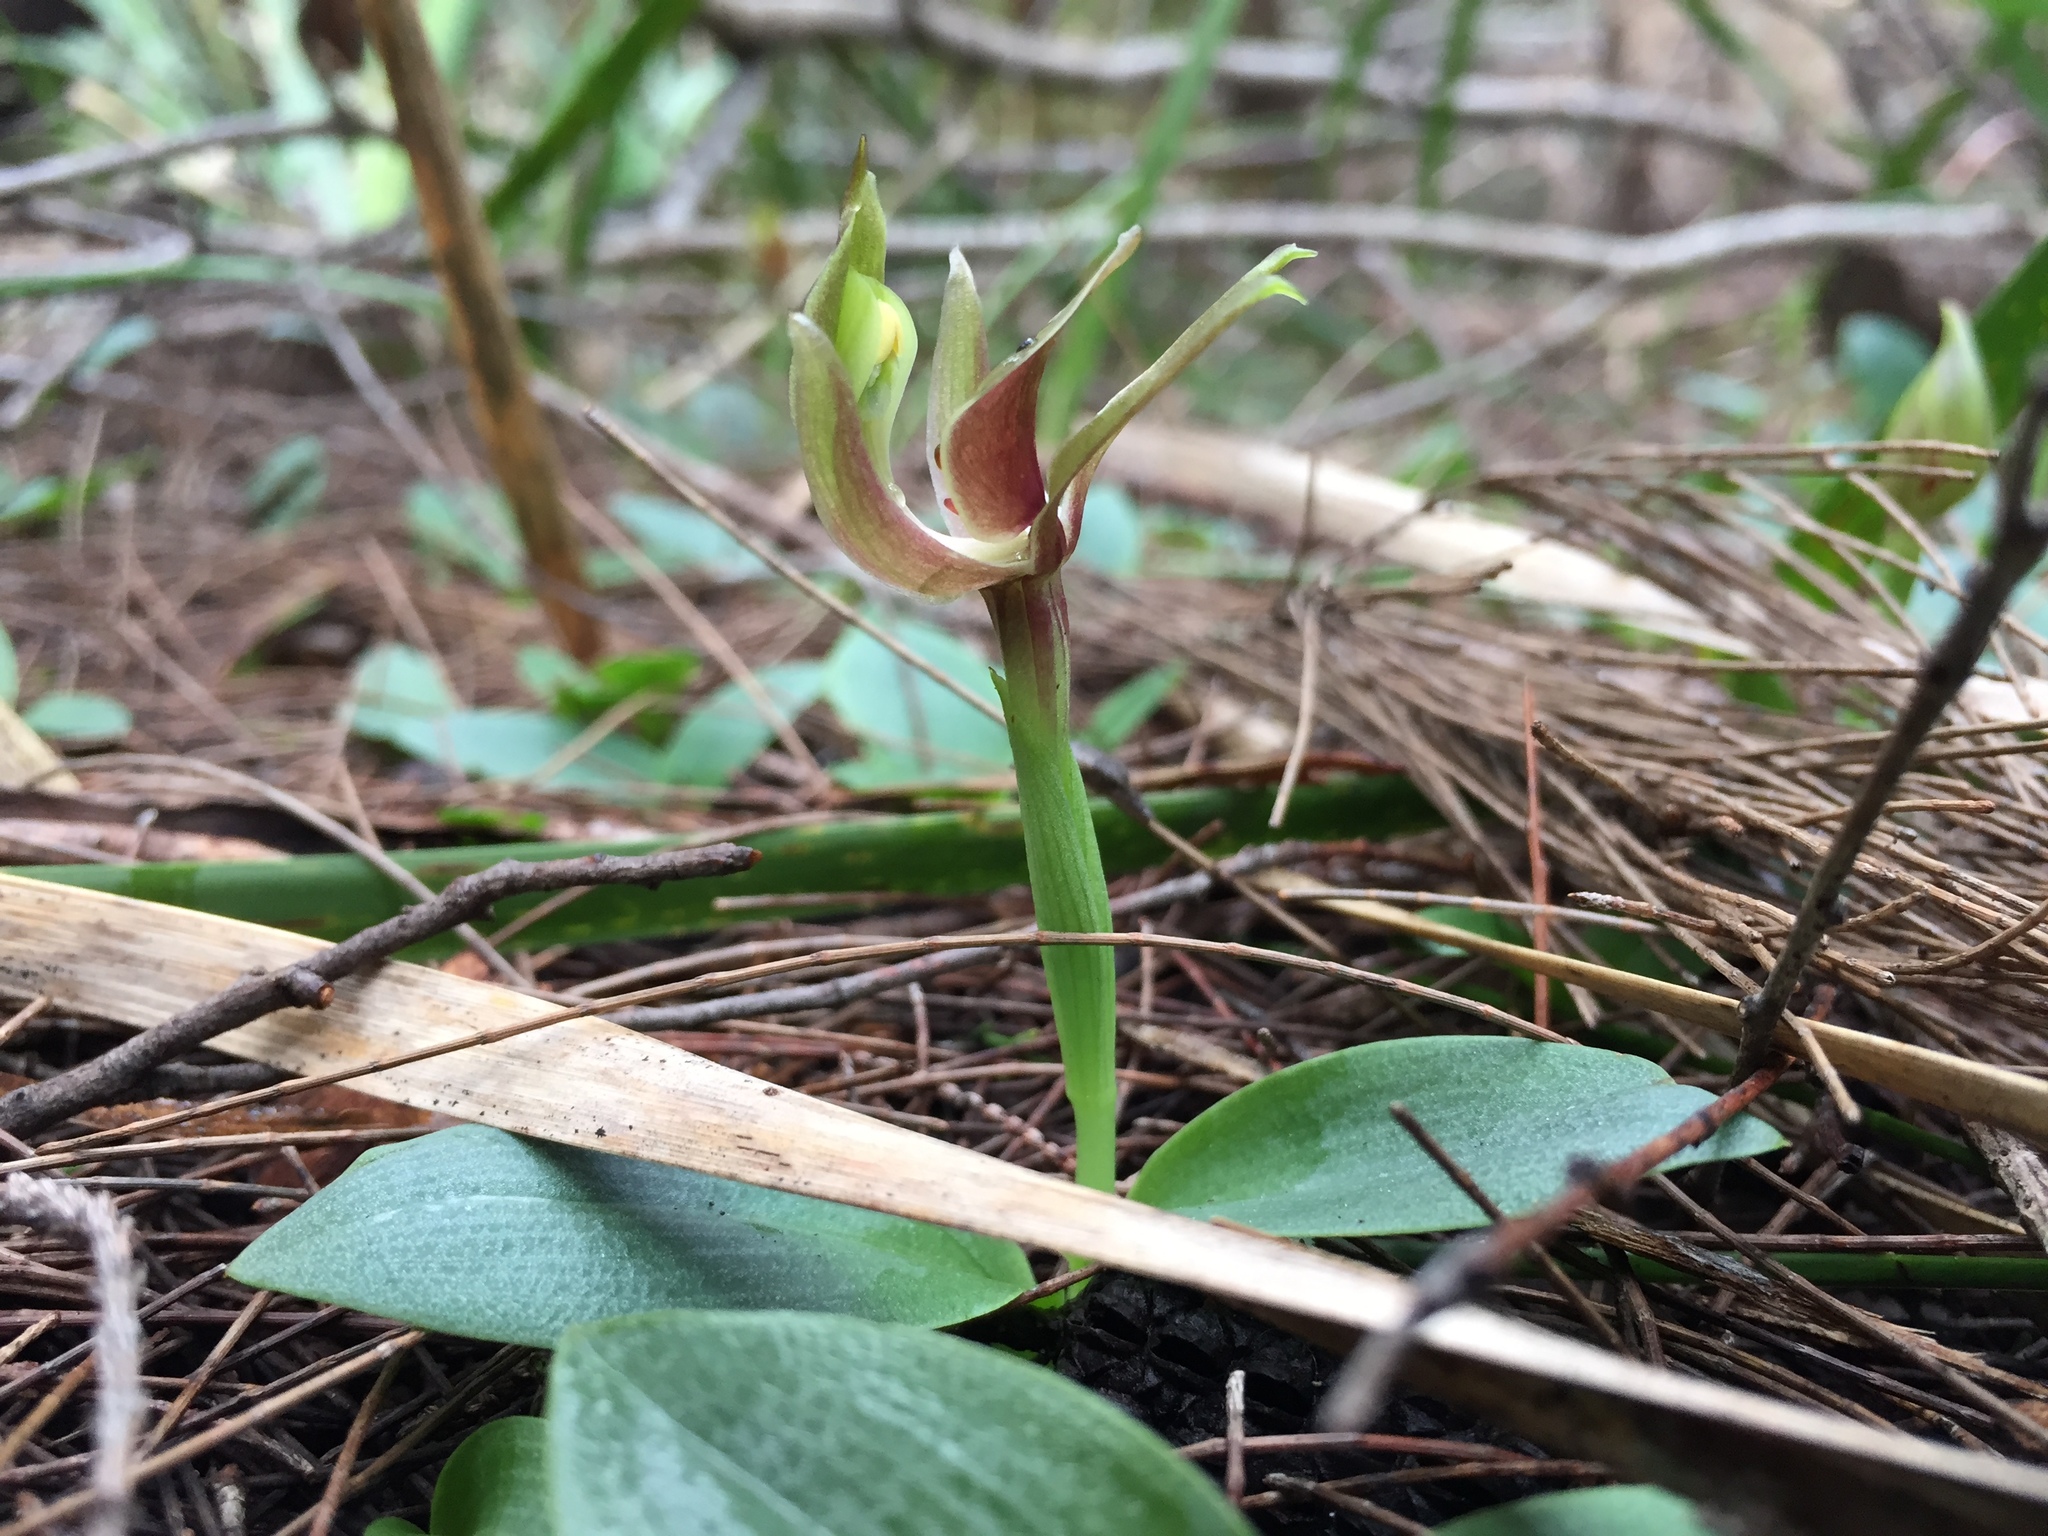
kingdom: Plantae
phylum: Tracheophyta
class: Liliopsida
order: Asparagales
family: Orchidaceae
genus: Chiloglottis
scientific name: Chiloglottis triceratops
